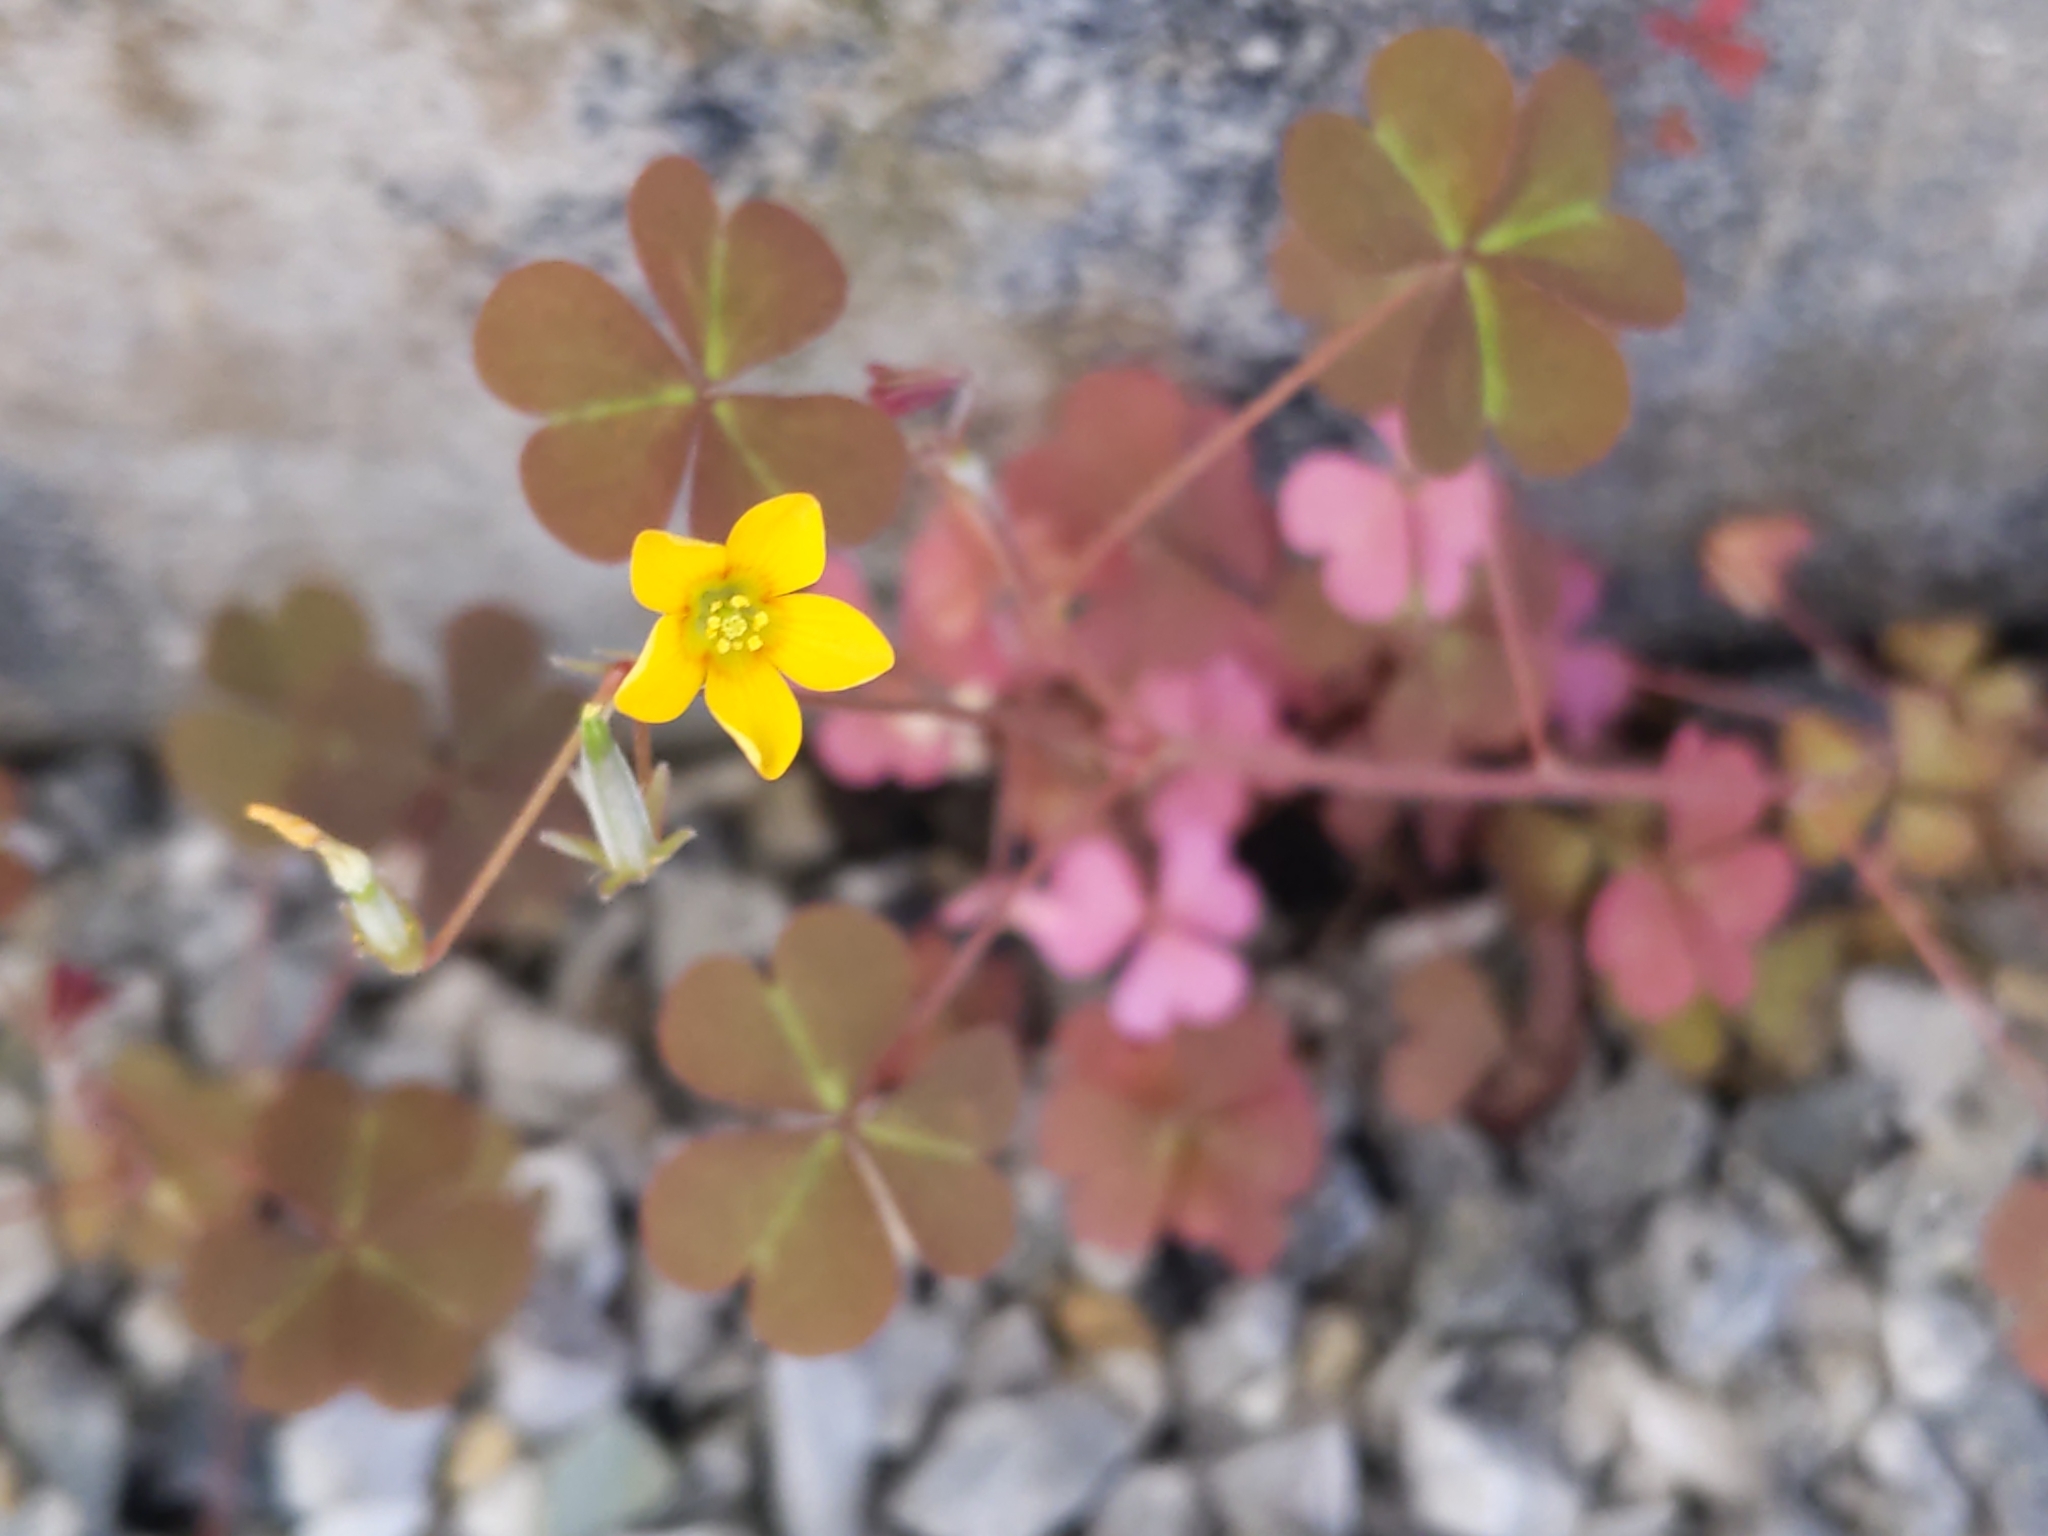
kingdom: Plantae
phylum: Tracheophyta
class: Magnoliopsida
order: Oxalidales
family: Oxalidaceae
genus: Oxalis
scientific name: Oxalis corniculata
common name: Procumbent yellow-sorrel
